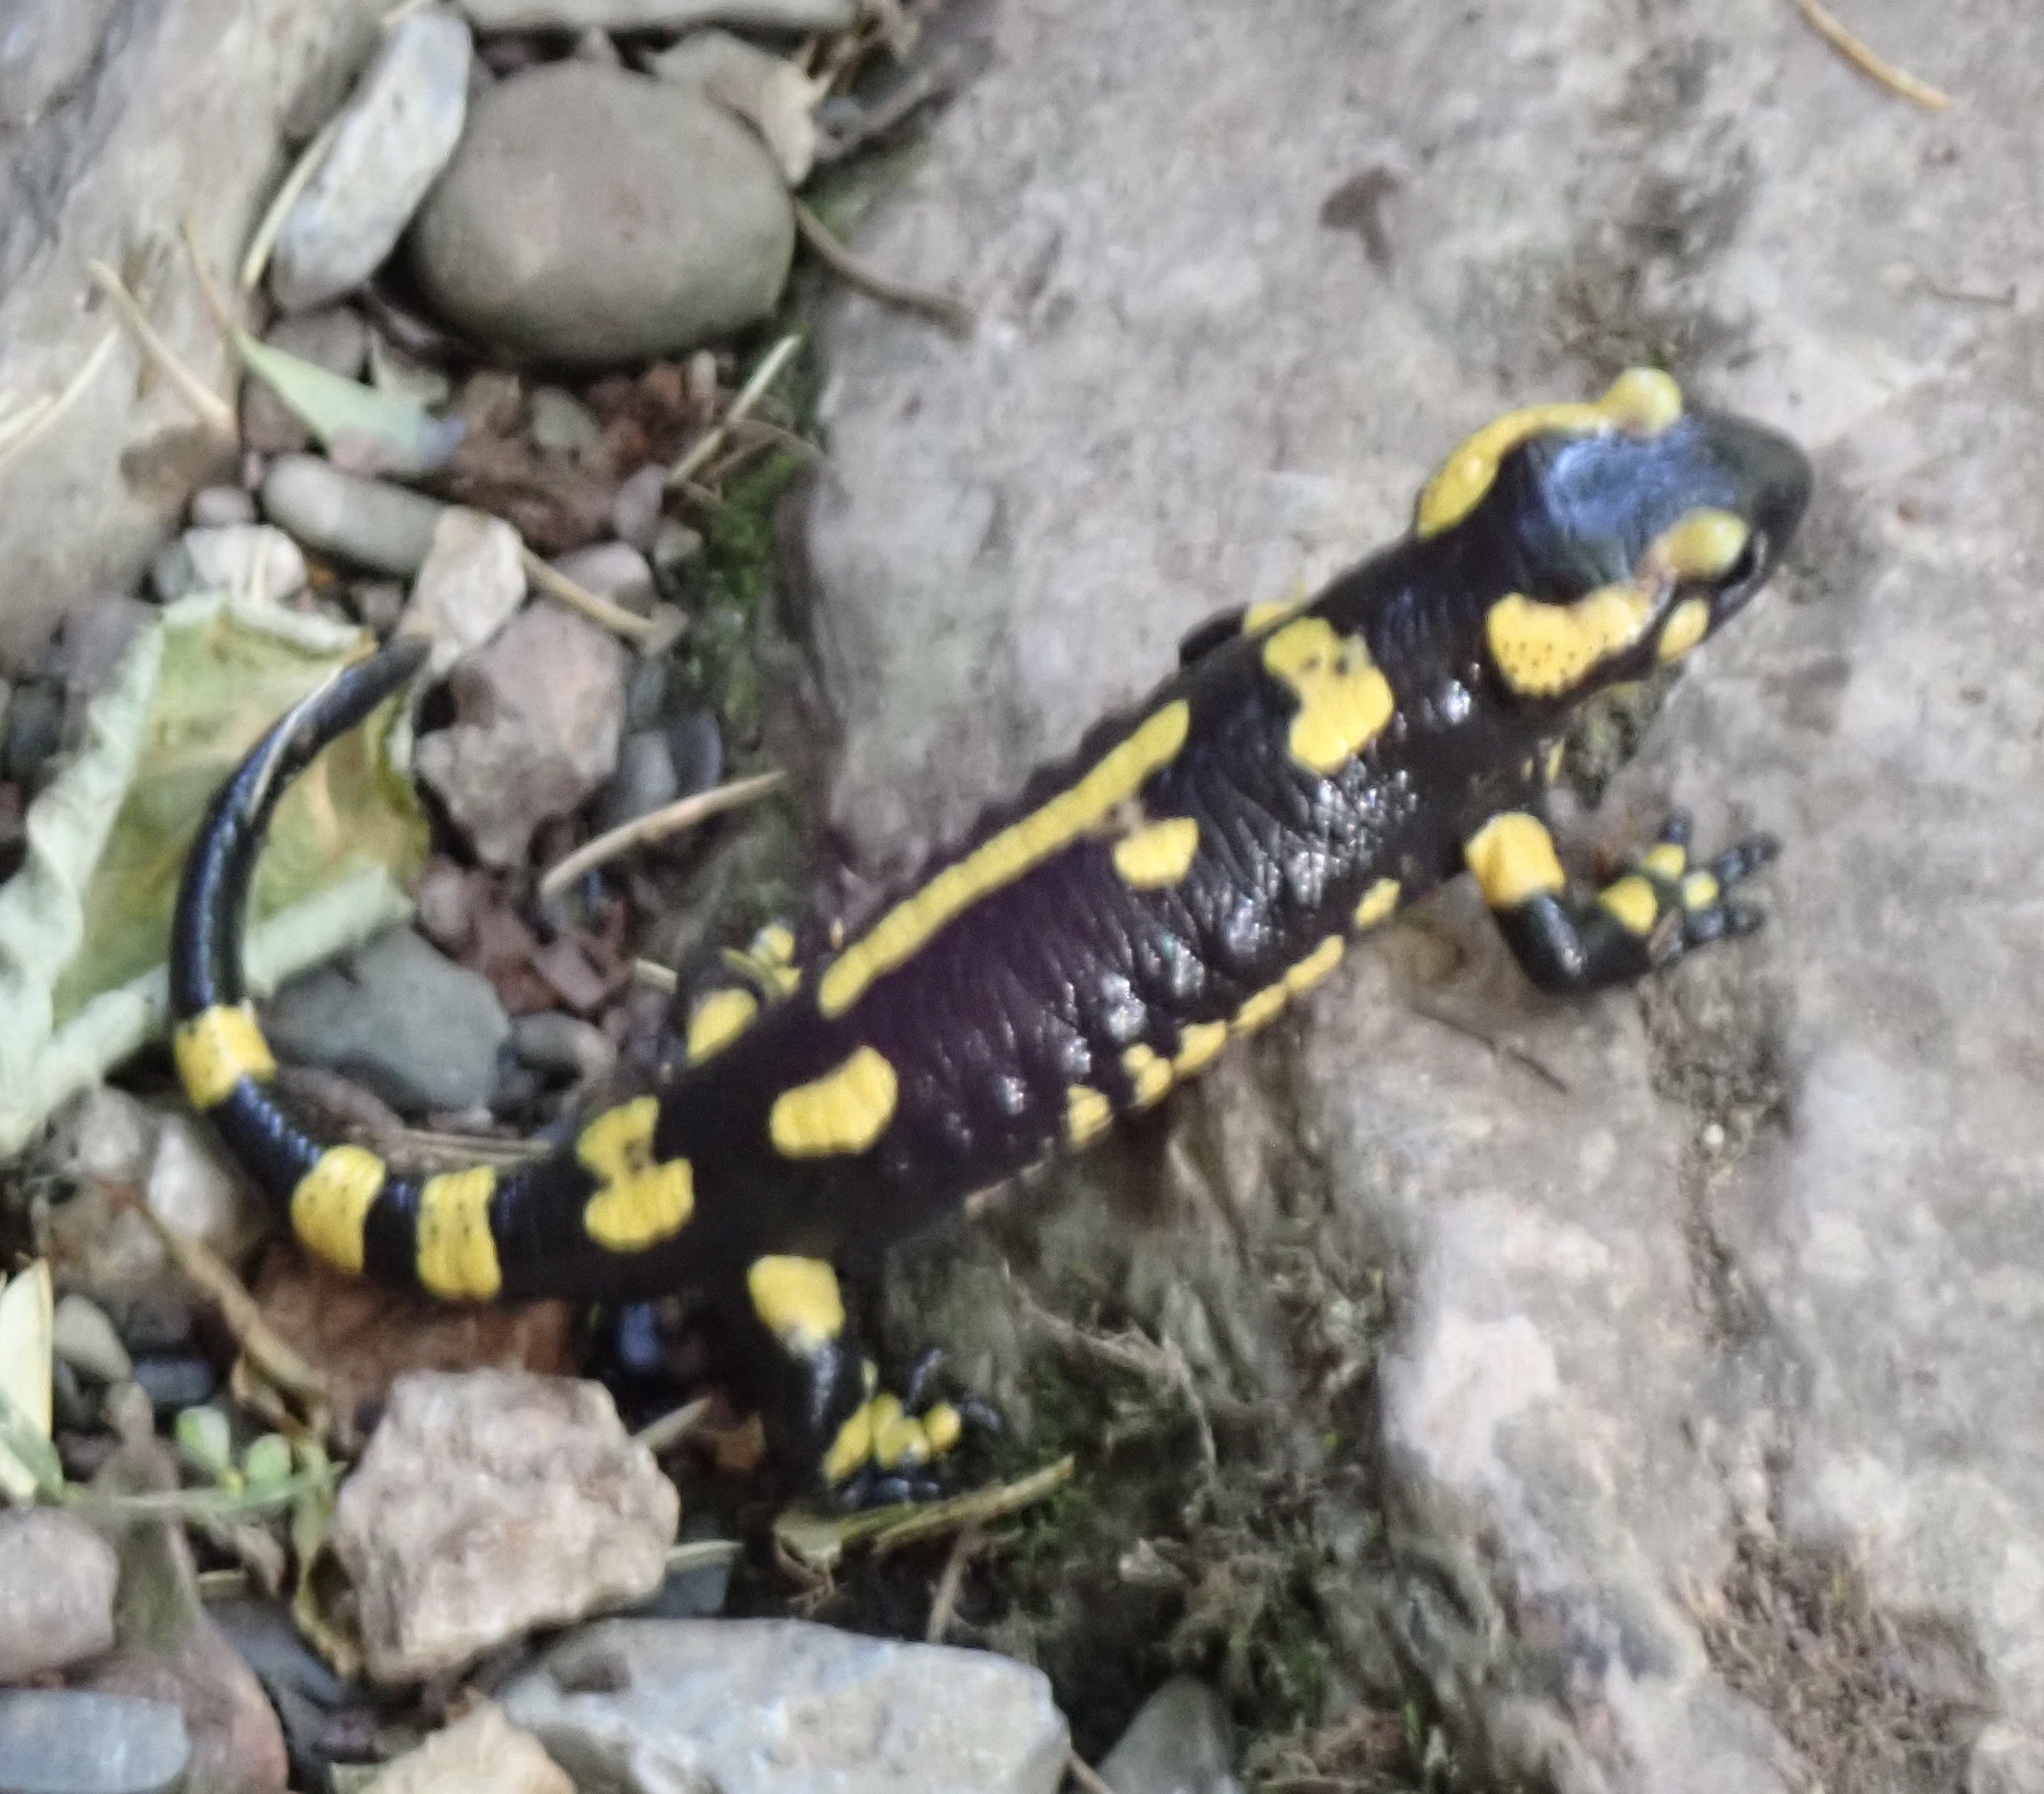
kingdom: Animalia
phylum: Chordata
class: Amphibia
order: Caudata
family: Salamandridae
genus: Salamandra
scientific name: Salamandra salamandra
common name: Fire salamander
